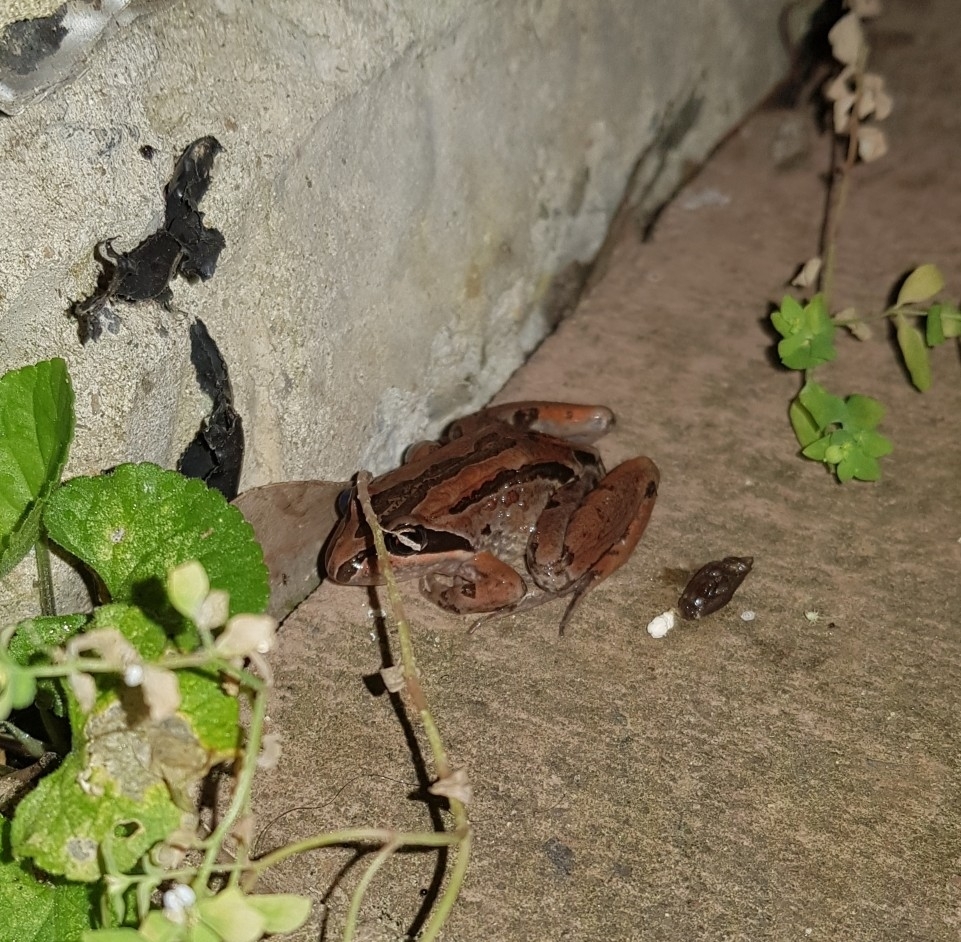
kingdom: Animalia
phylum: Chordata
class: Amphibia
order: Anura
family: Limnodynastidae
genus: Limnodynastes
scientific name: Limnodynastes peronii
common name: Brown frog
